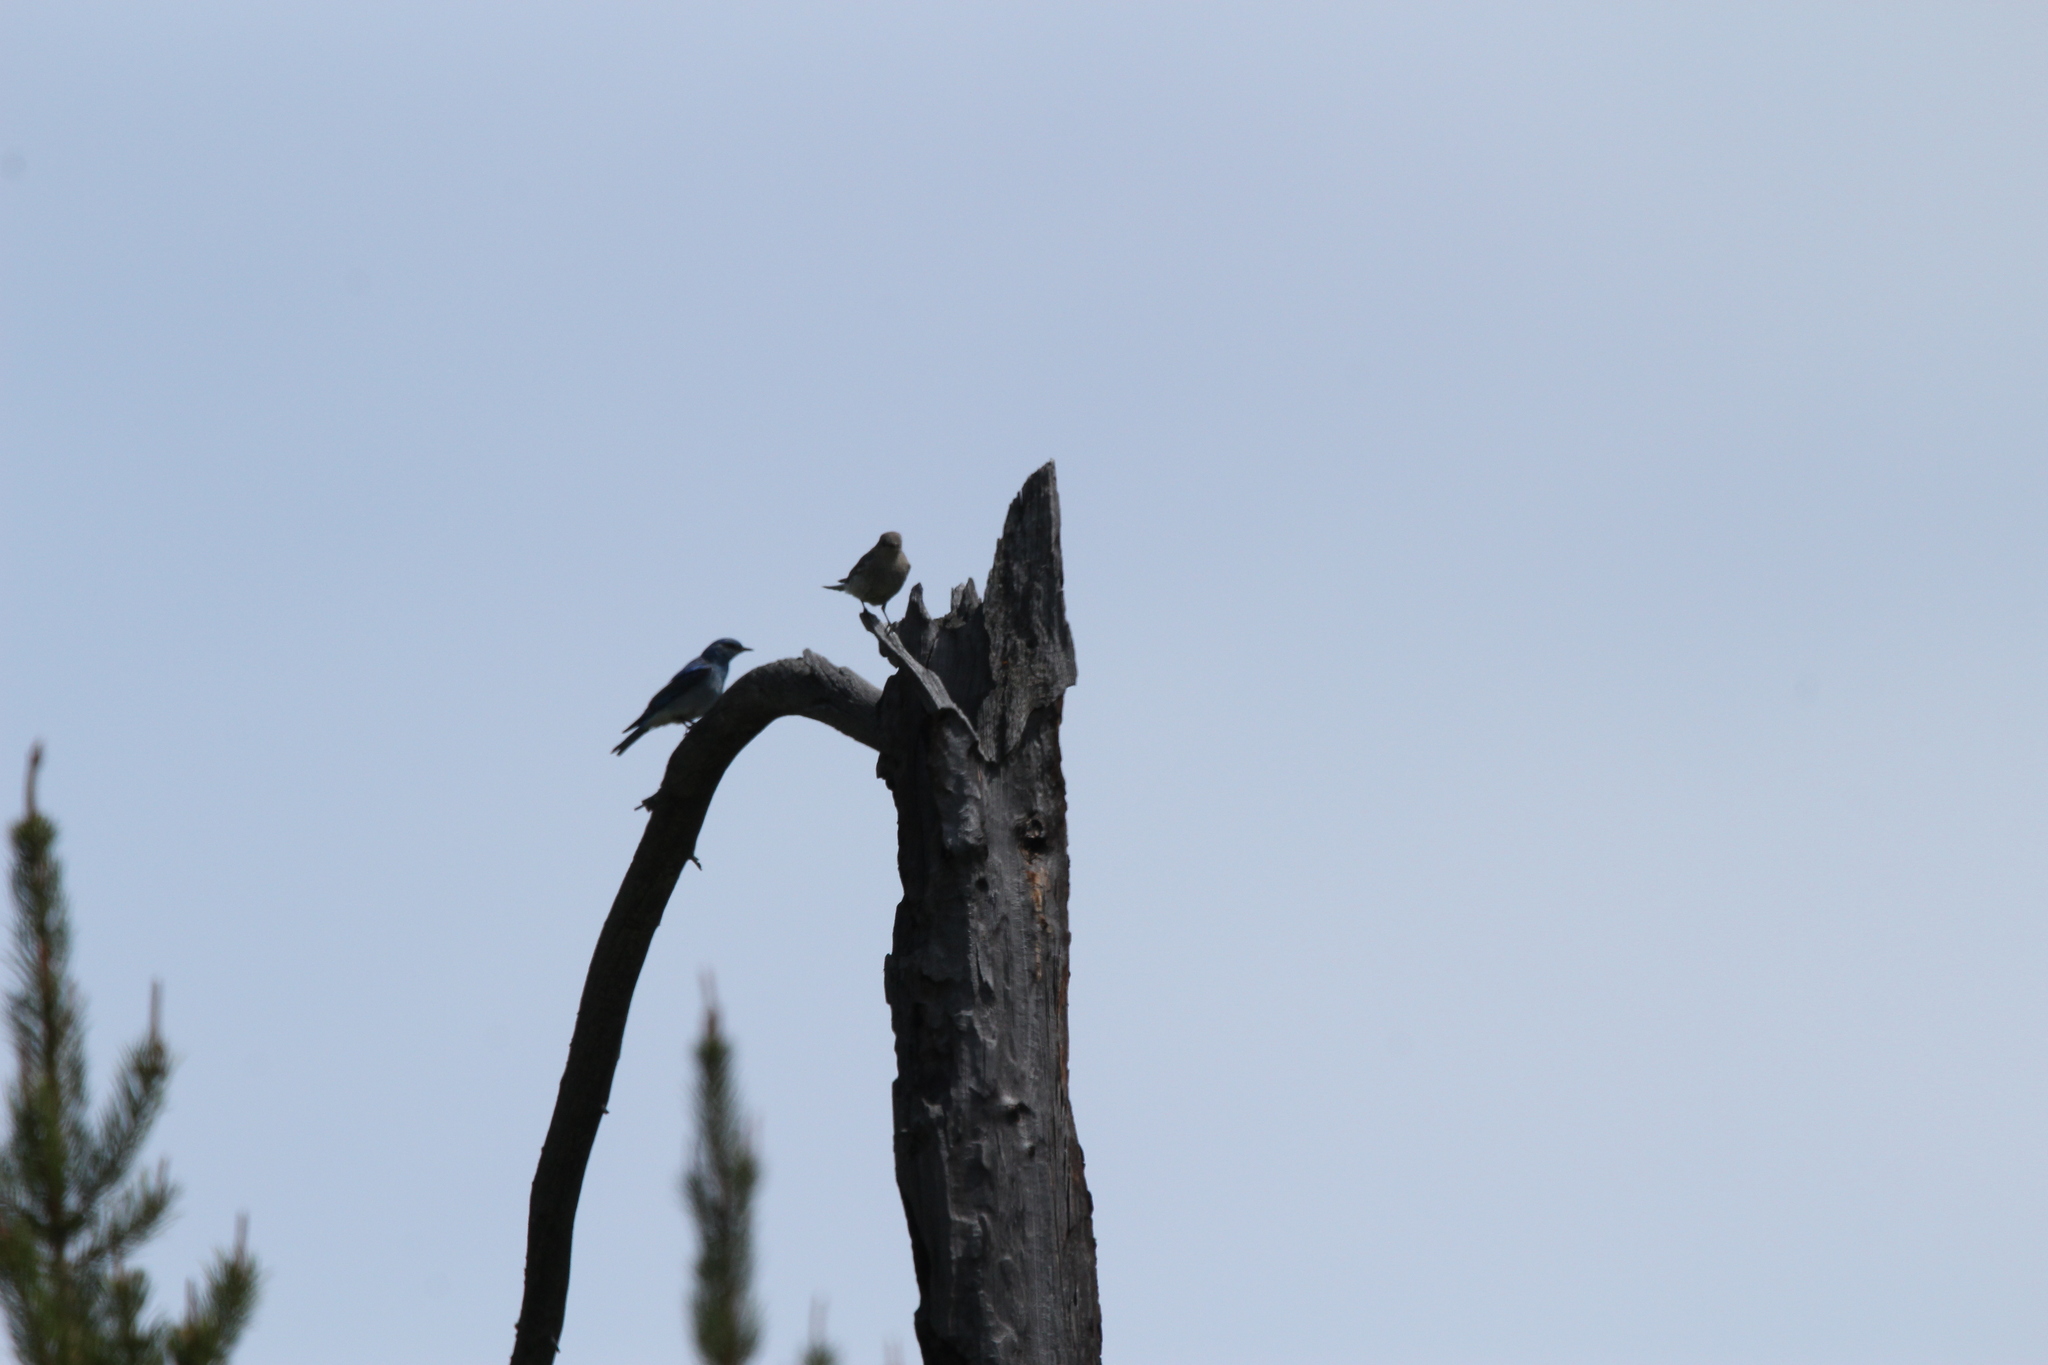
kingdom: Animalia
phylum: Chordata
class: Aves
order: Passeriformes
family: Turdidae
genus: Sialia
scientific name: Sialia currucoides
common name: Mountain bluebird
